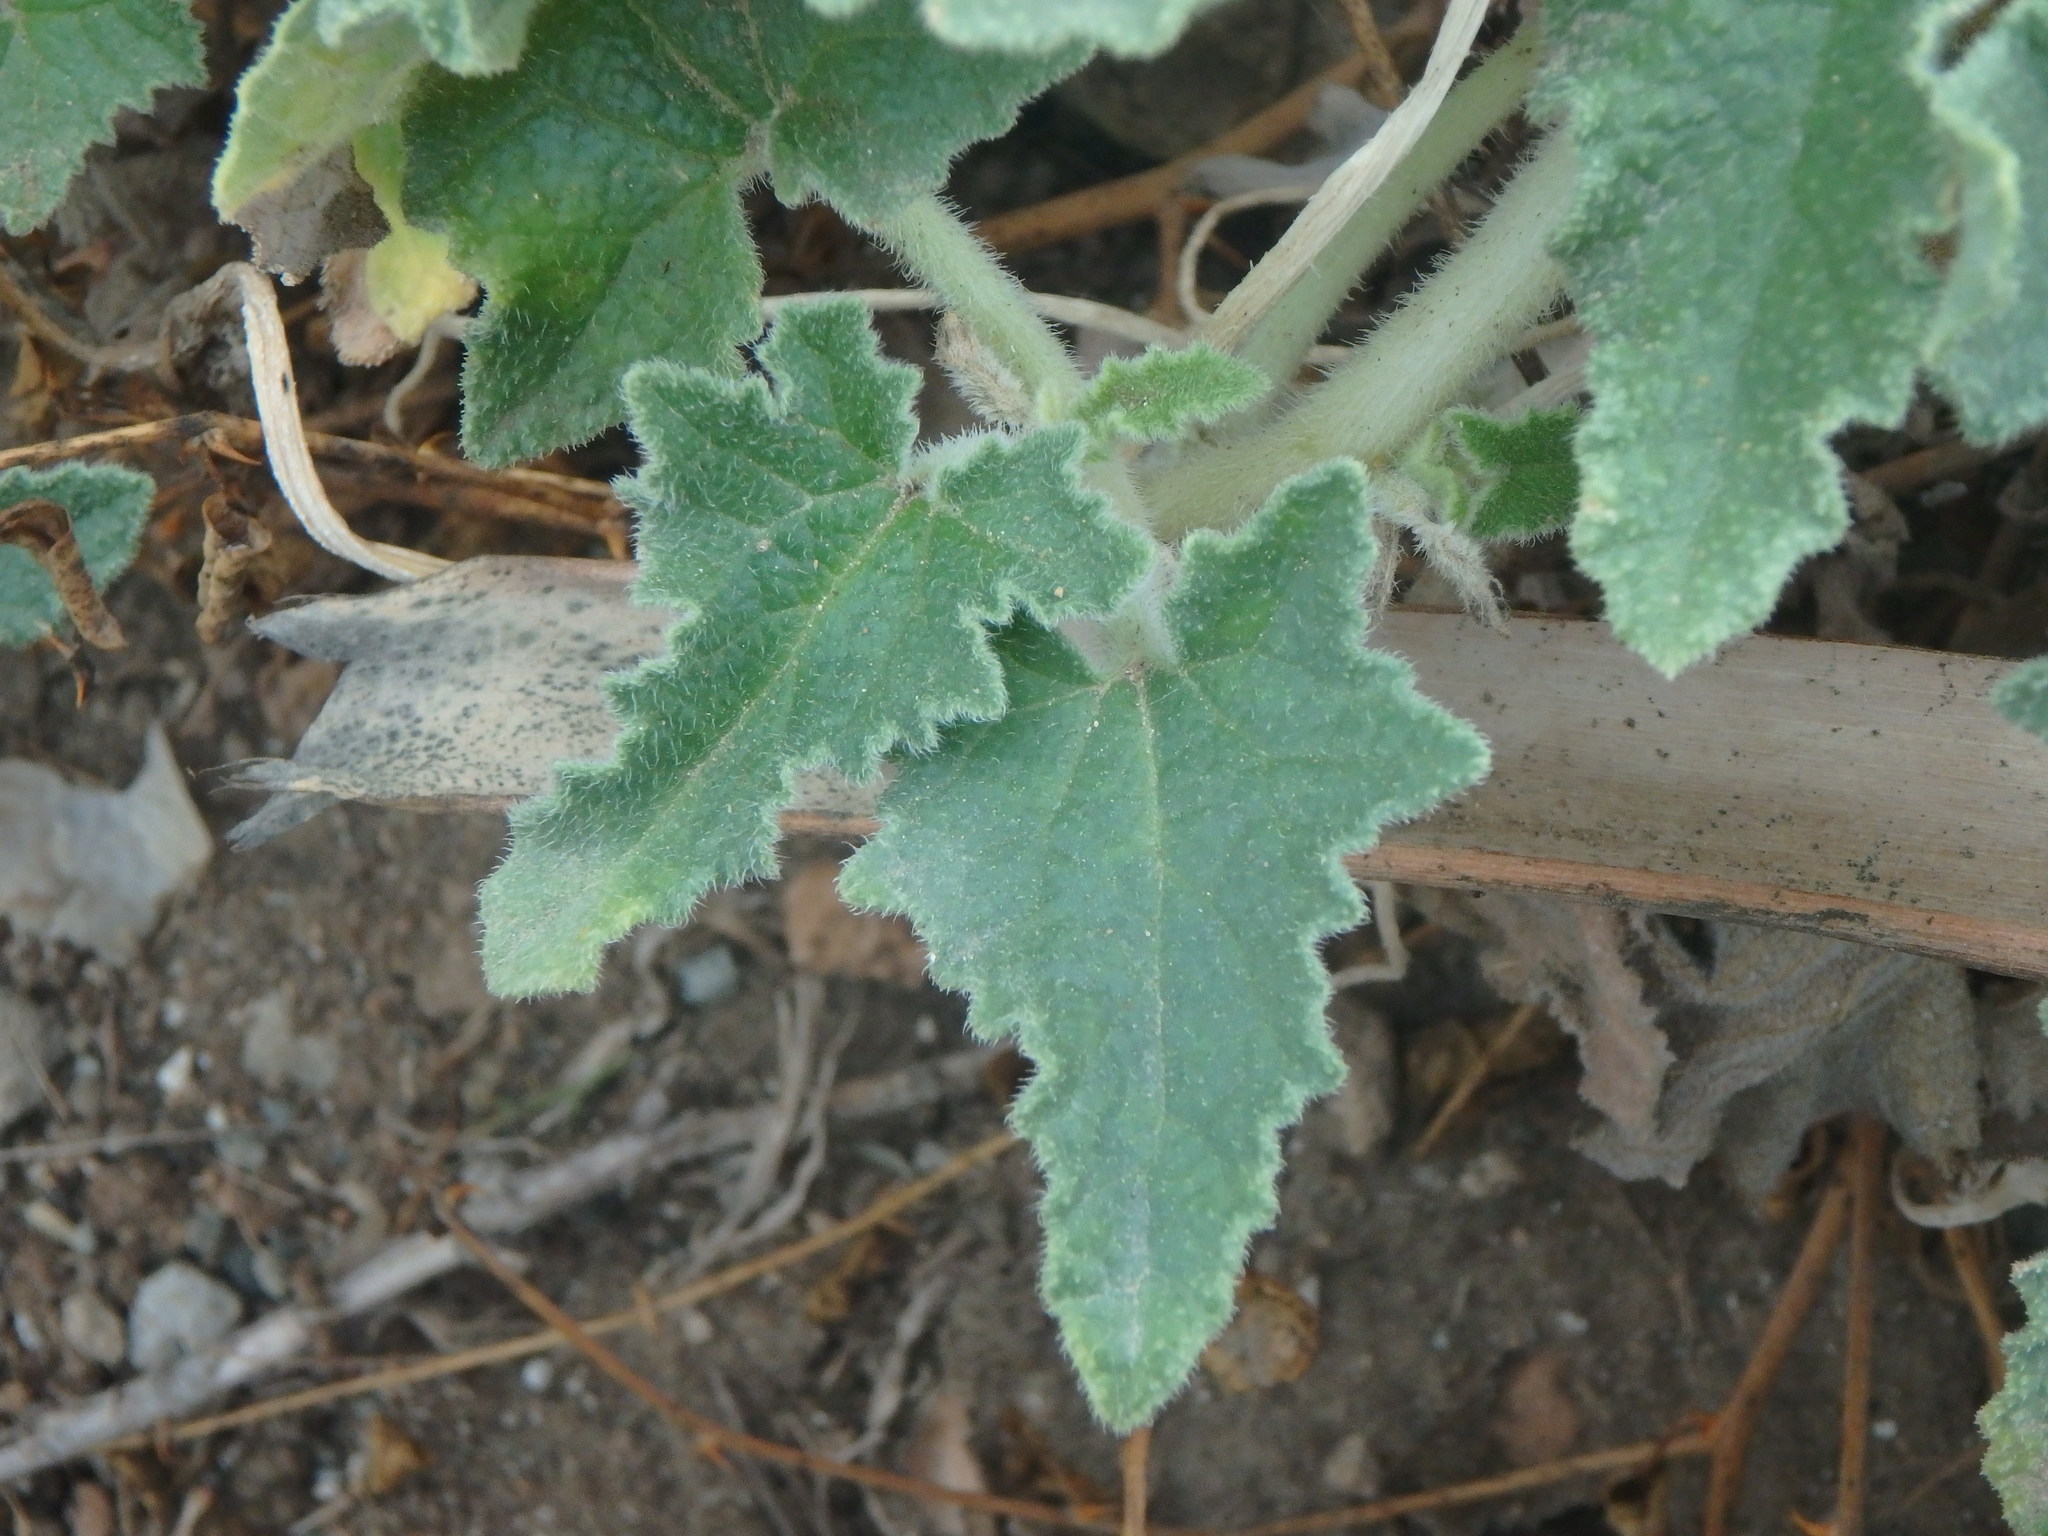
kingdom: Plantae
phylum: Tracheophyta
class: Magnoliopsida
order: Cucurbitales
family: Cucurbitaceae
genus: Ecballium
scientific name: Ecballium elaterium
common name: Squirting cucumber
